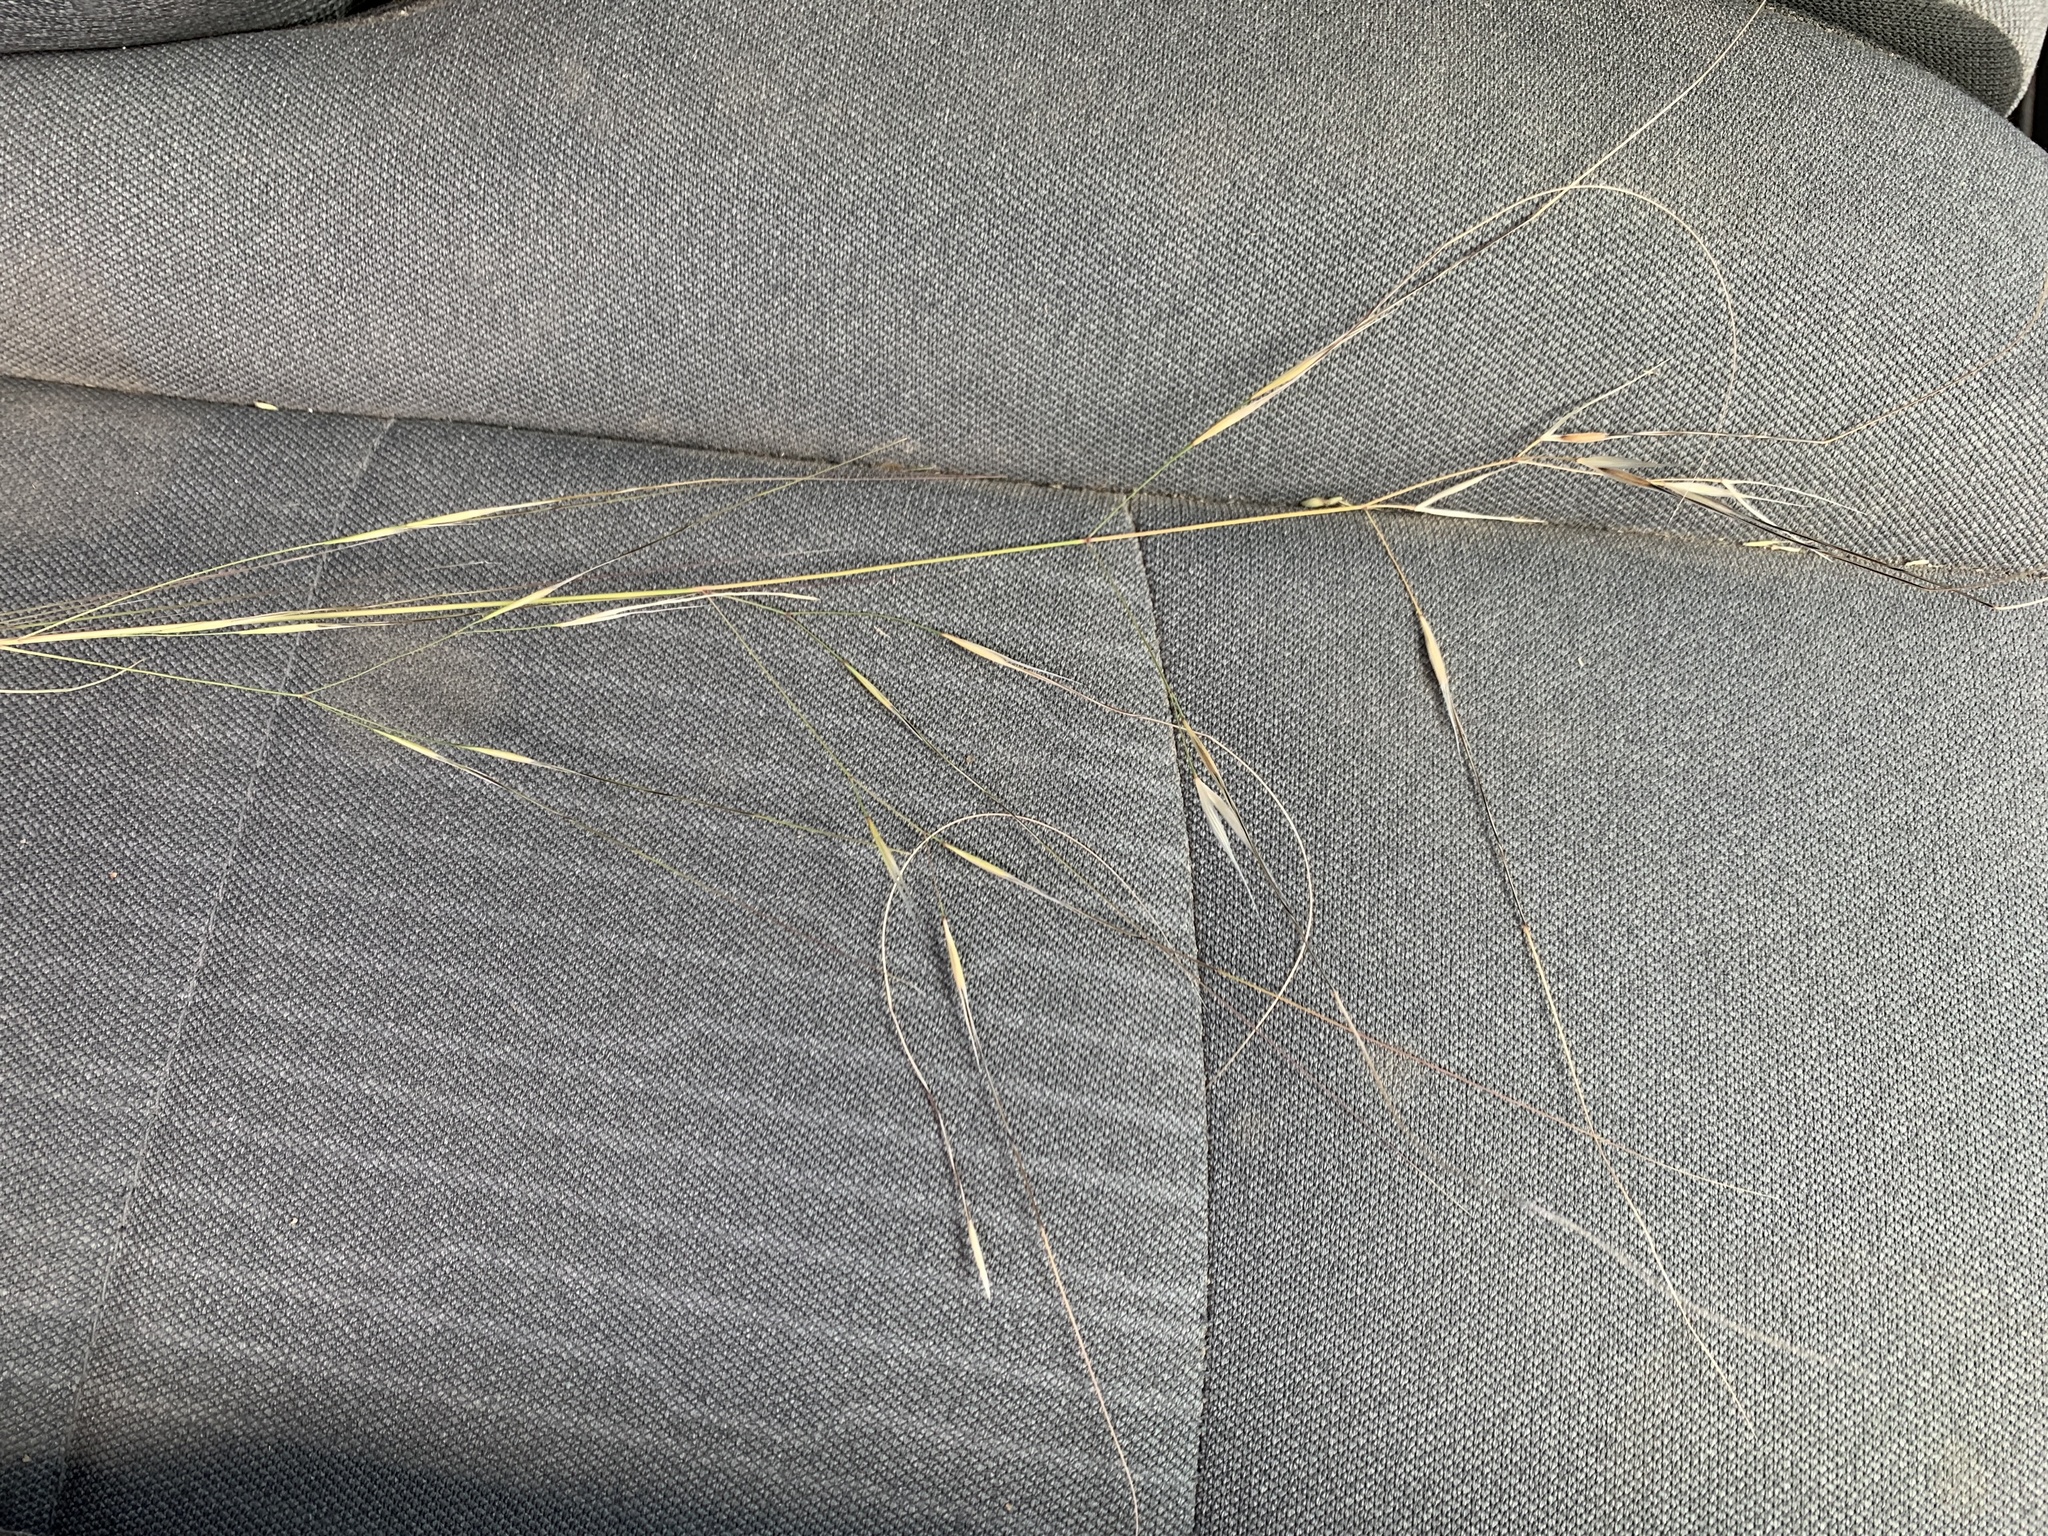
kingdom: Plantae
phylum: Tracheophyta
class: Liliopsida
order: Poales
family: Poaceae
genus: Hesperostipa
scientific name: Hesperostipa comata
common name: Needle-and-thread grass
